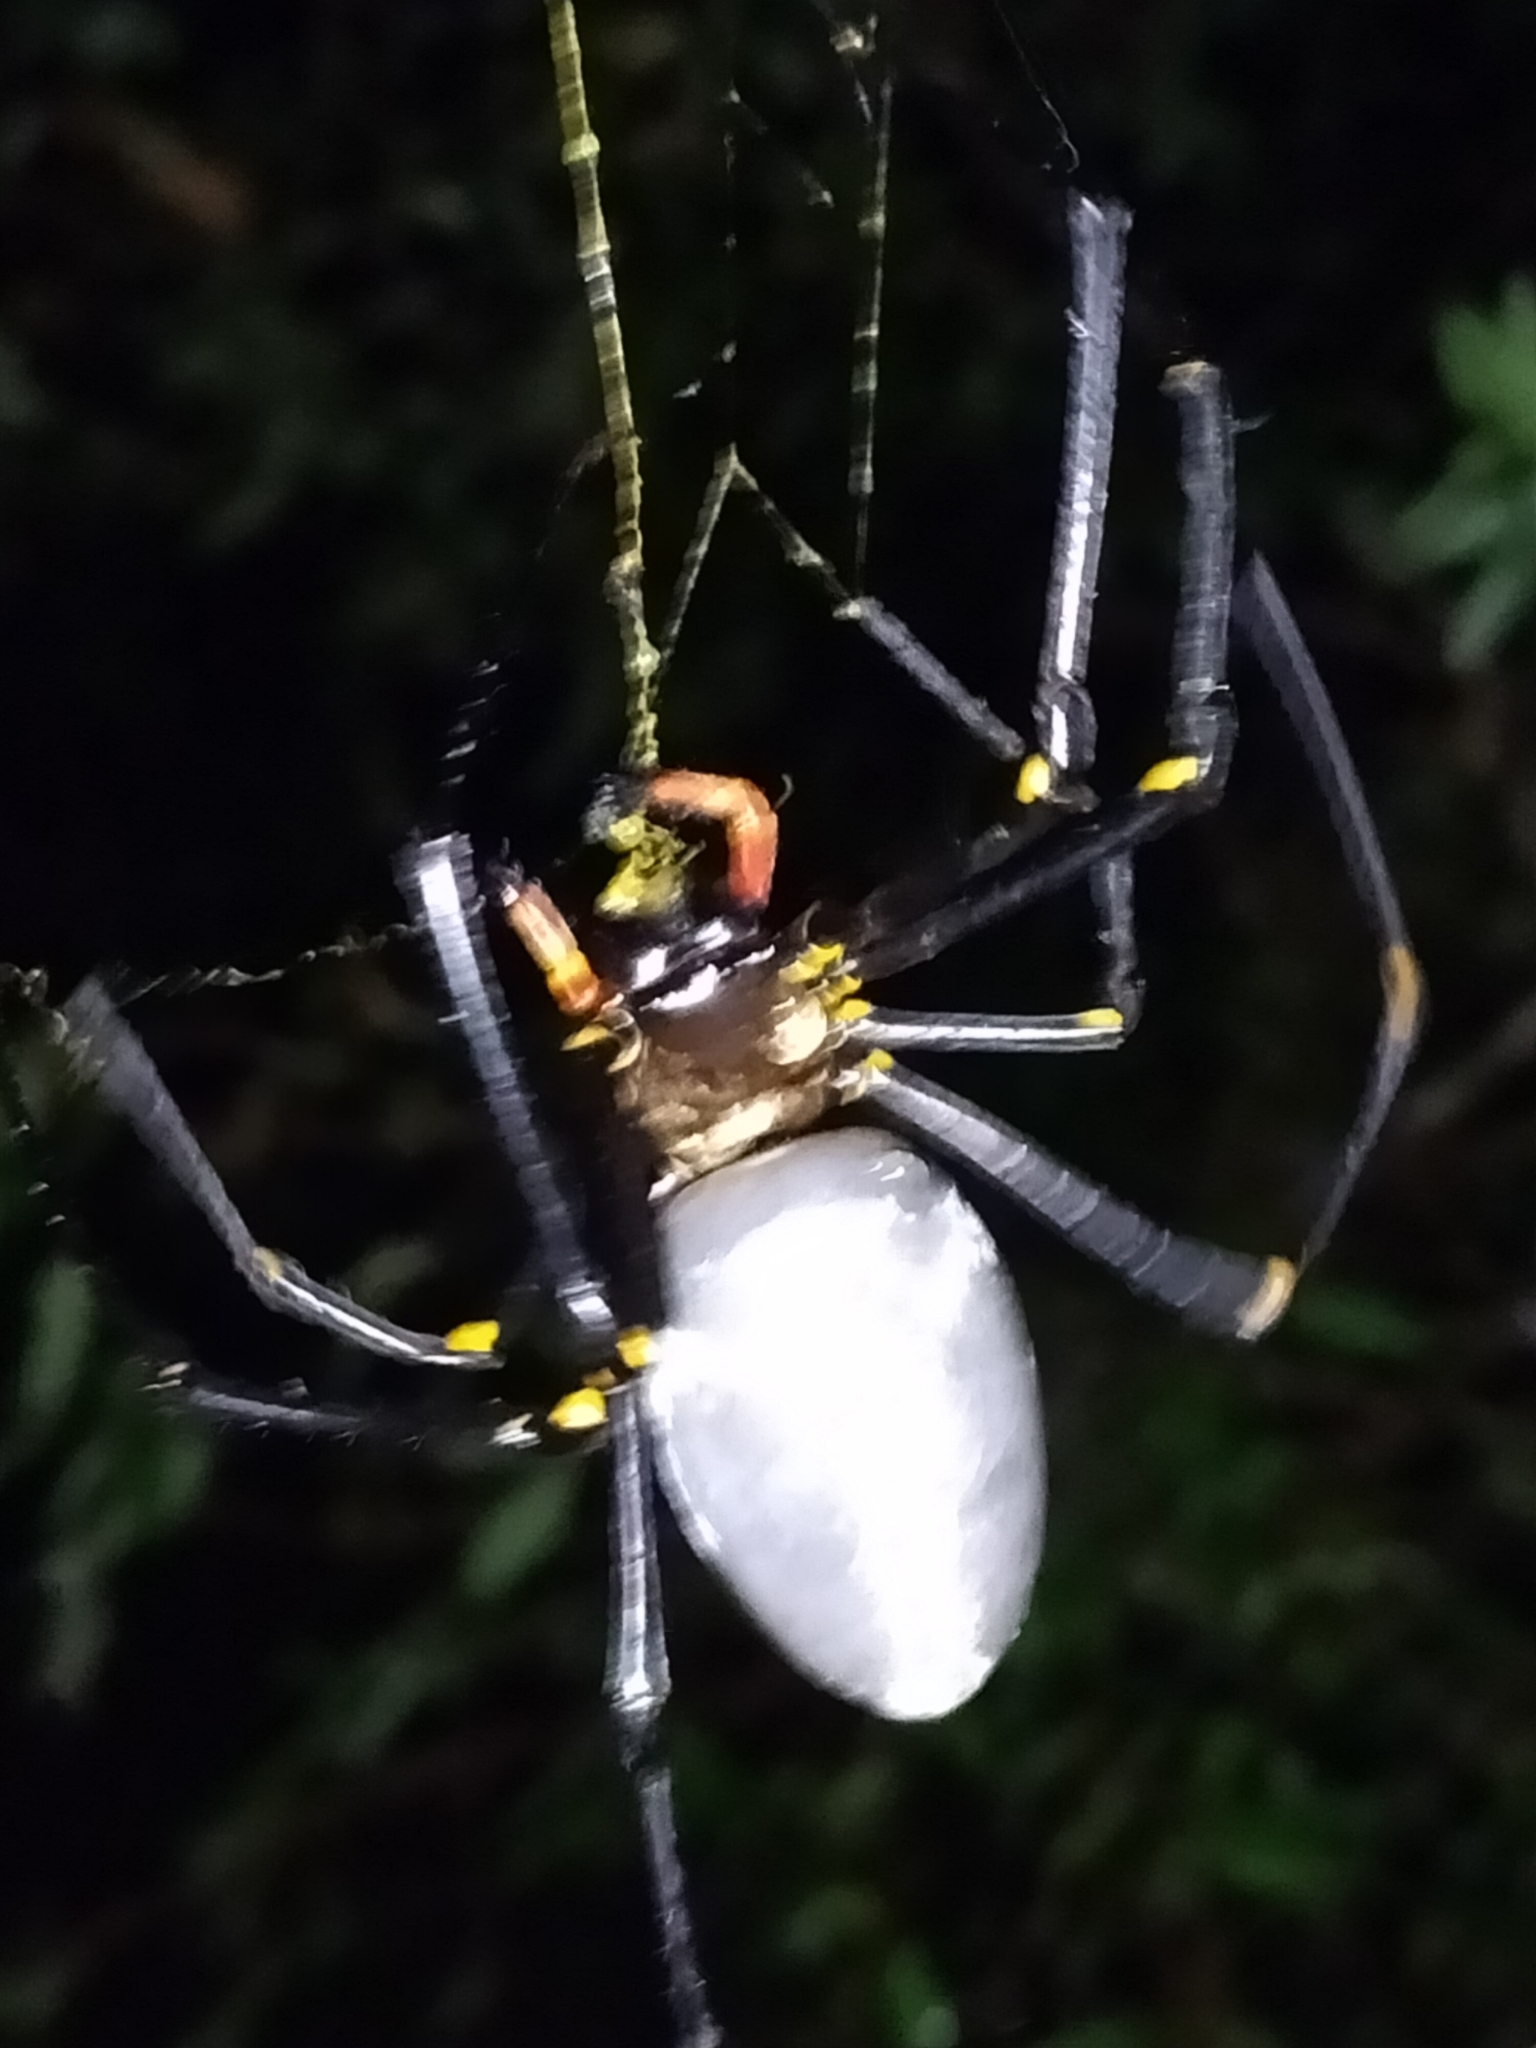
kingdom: Animalia
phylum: Arthropoda
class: Arachnida
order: Araneae
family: Araneidae
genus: Nephila
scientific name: Nephila pilipes
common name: Giant golden orb weaver
